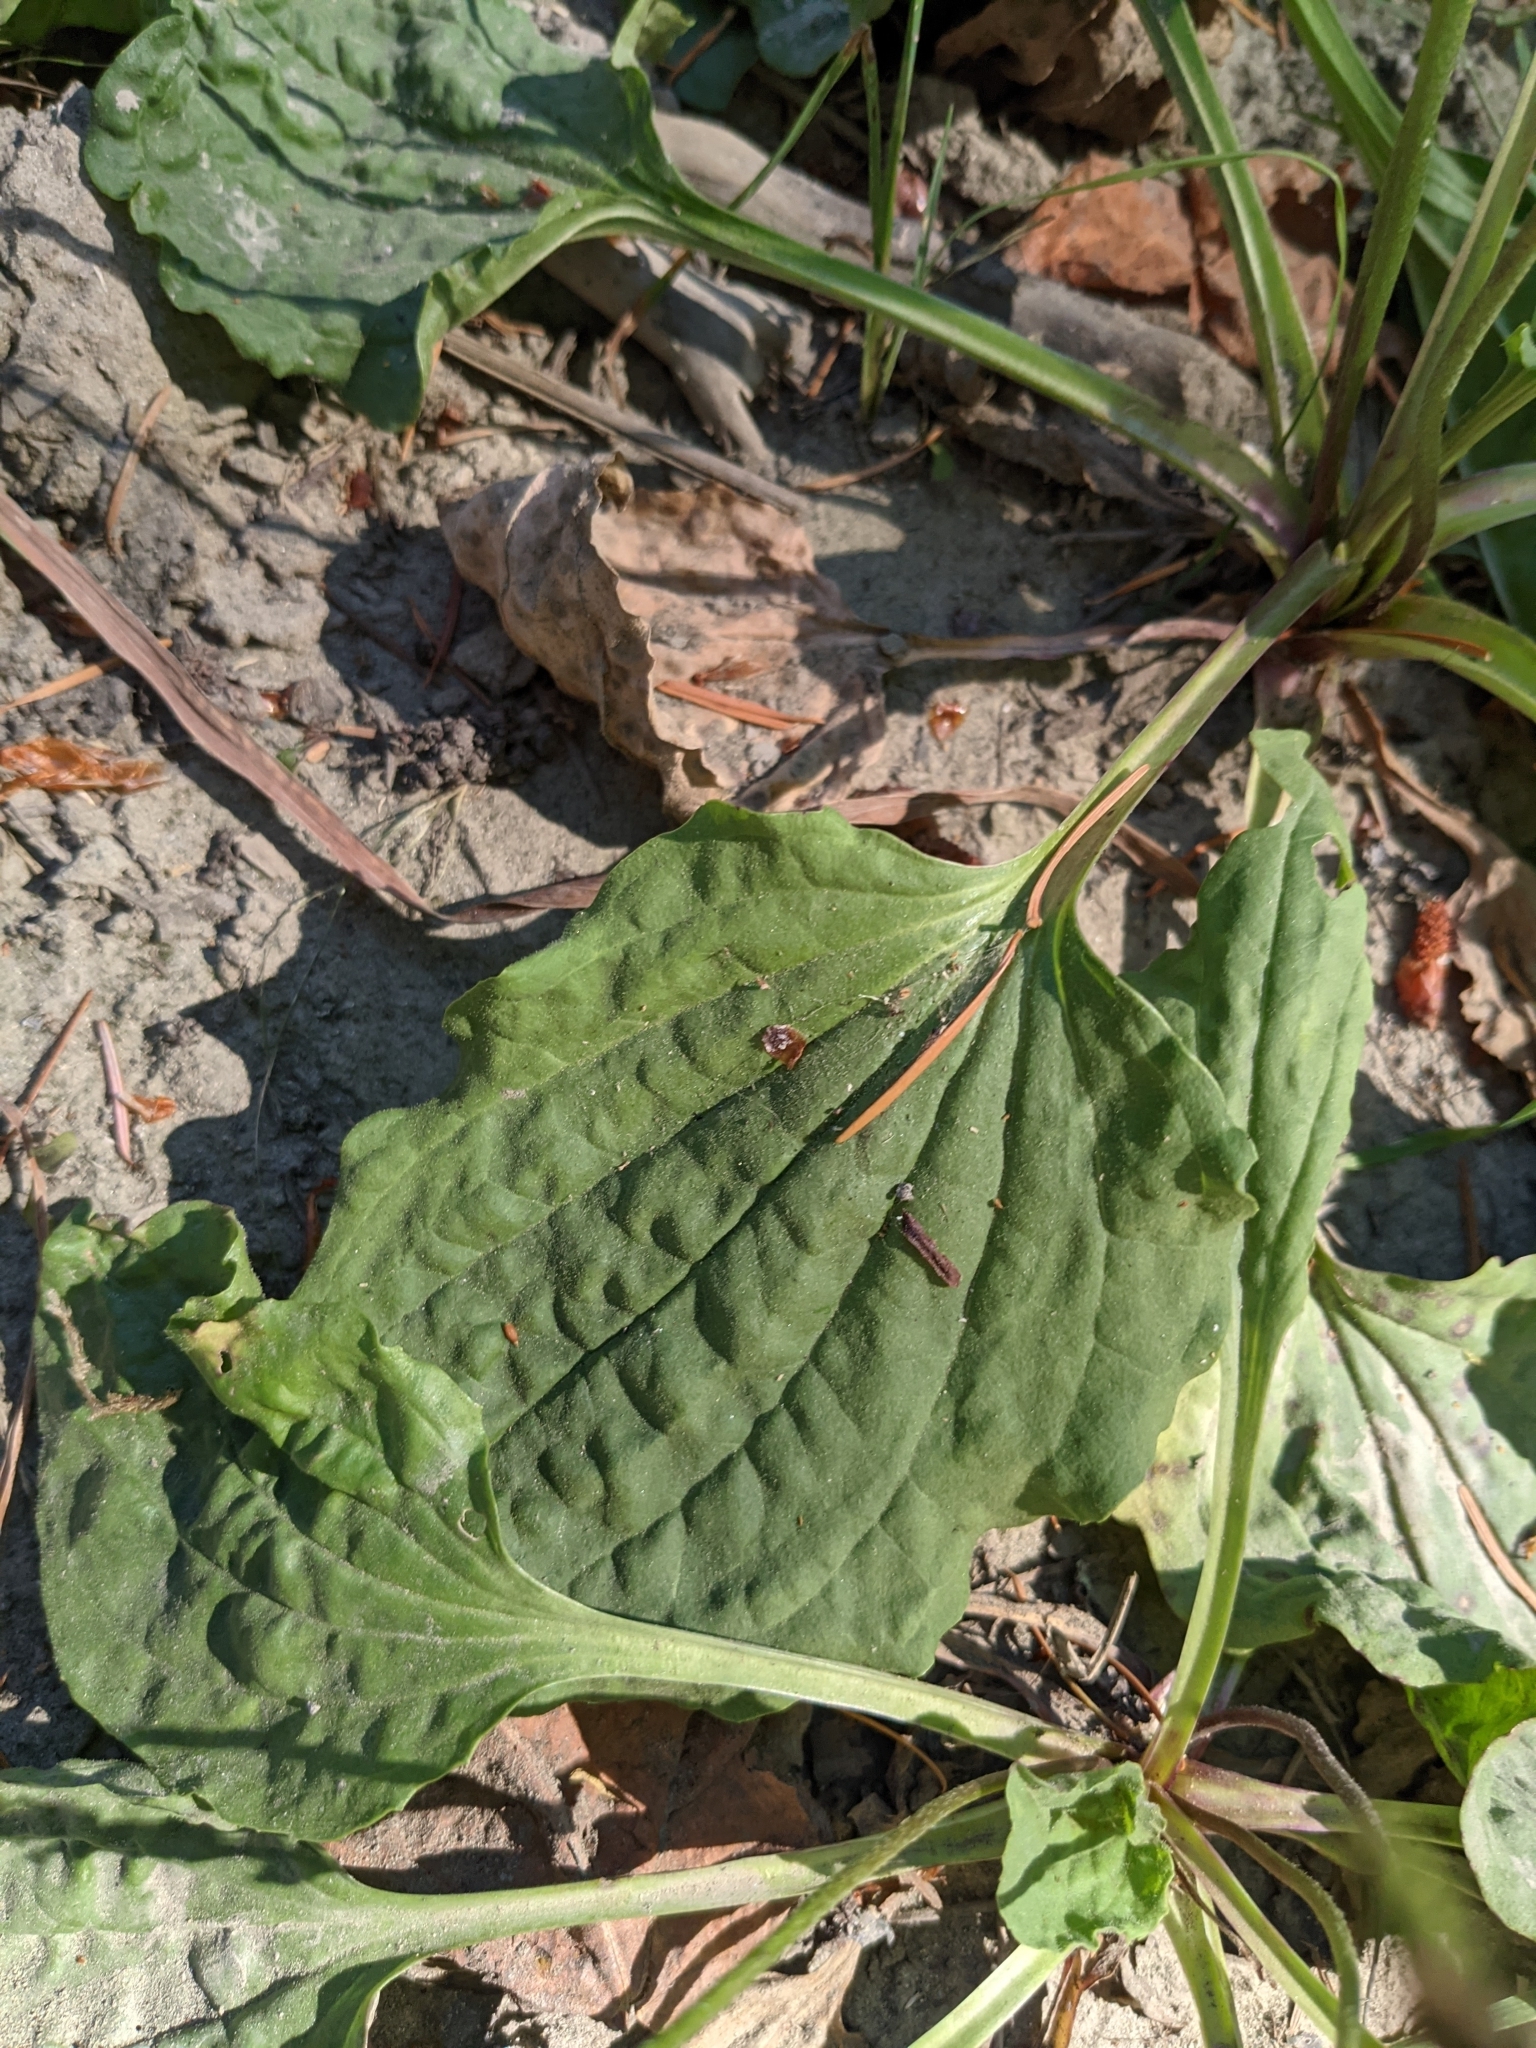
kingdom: Plantae
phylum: Tracheophyta
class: Magnoliopsida
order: Lamiales
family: Plantaginaceae
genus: Plantago
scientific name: Plantago major
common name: Common plantain
